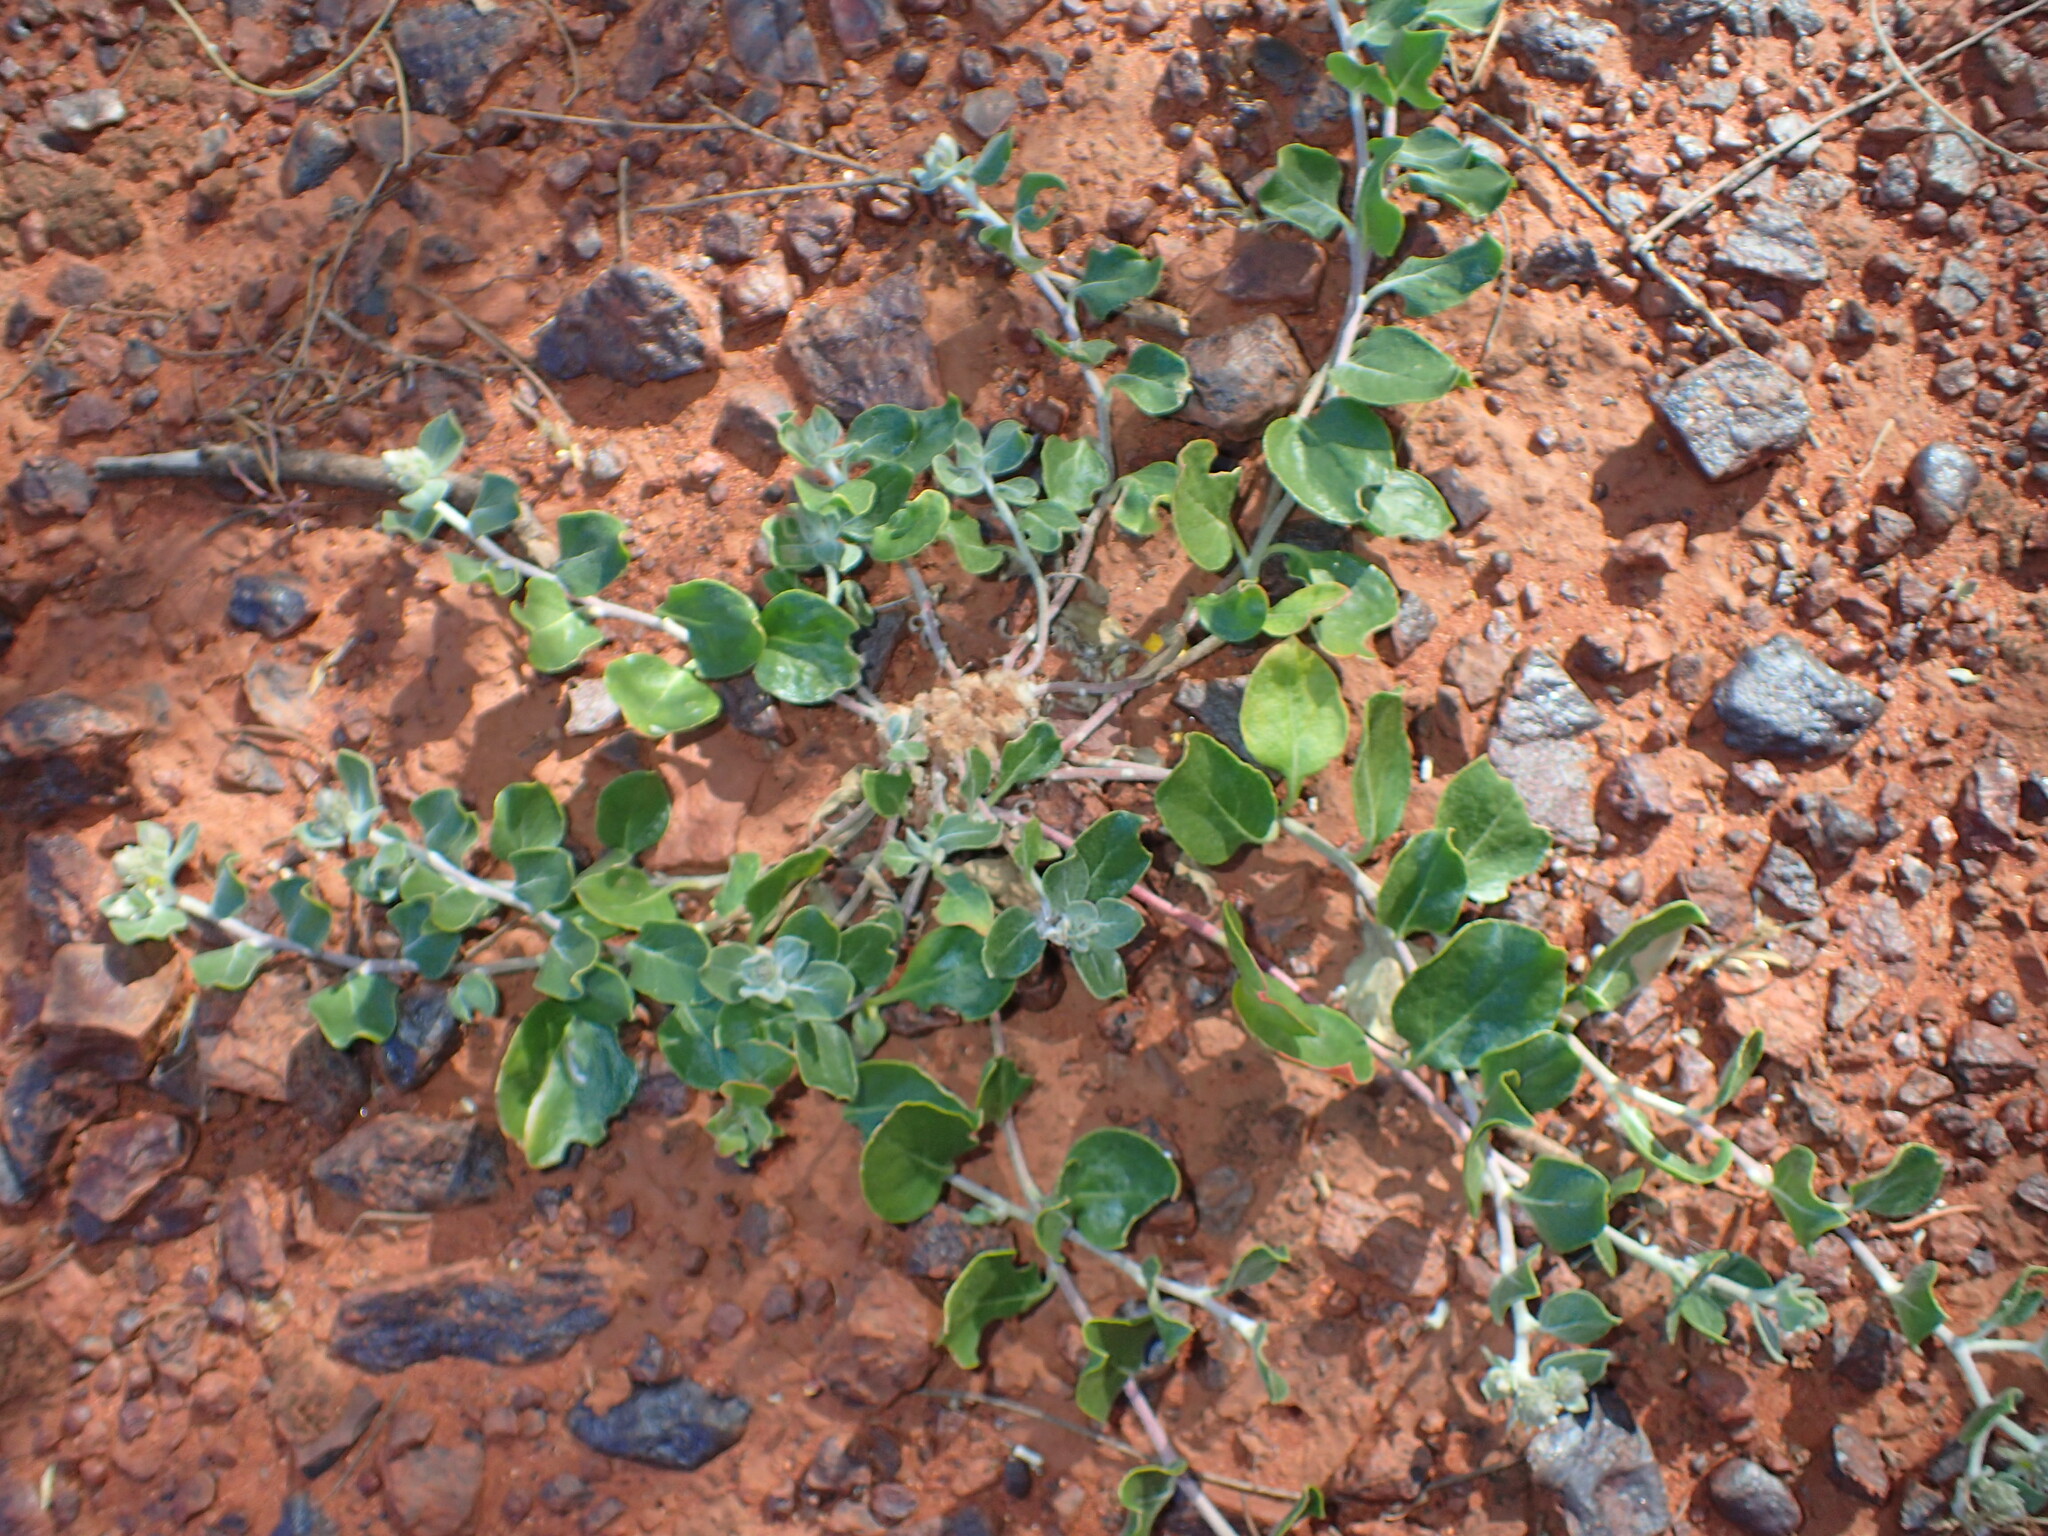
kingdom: Plantae
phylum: Tracheophyta
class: Magnoliopsida
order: Caryophyllales
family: Amaranthaceae
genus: Ptilotus
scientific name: Ptilotus roei
